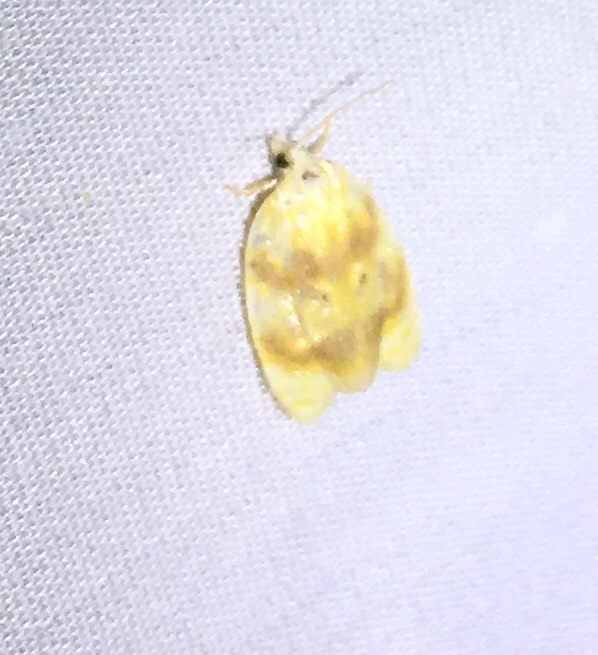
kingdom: Animalia
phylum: Arthropoda
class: Insecta
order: Lepidoptera
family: Tortricidae
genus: Acleris
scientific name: Acleris semipurpurana
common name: Oak leaftier moth
